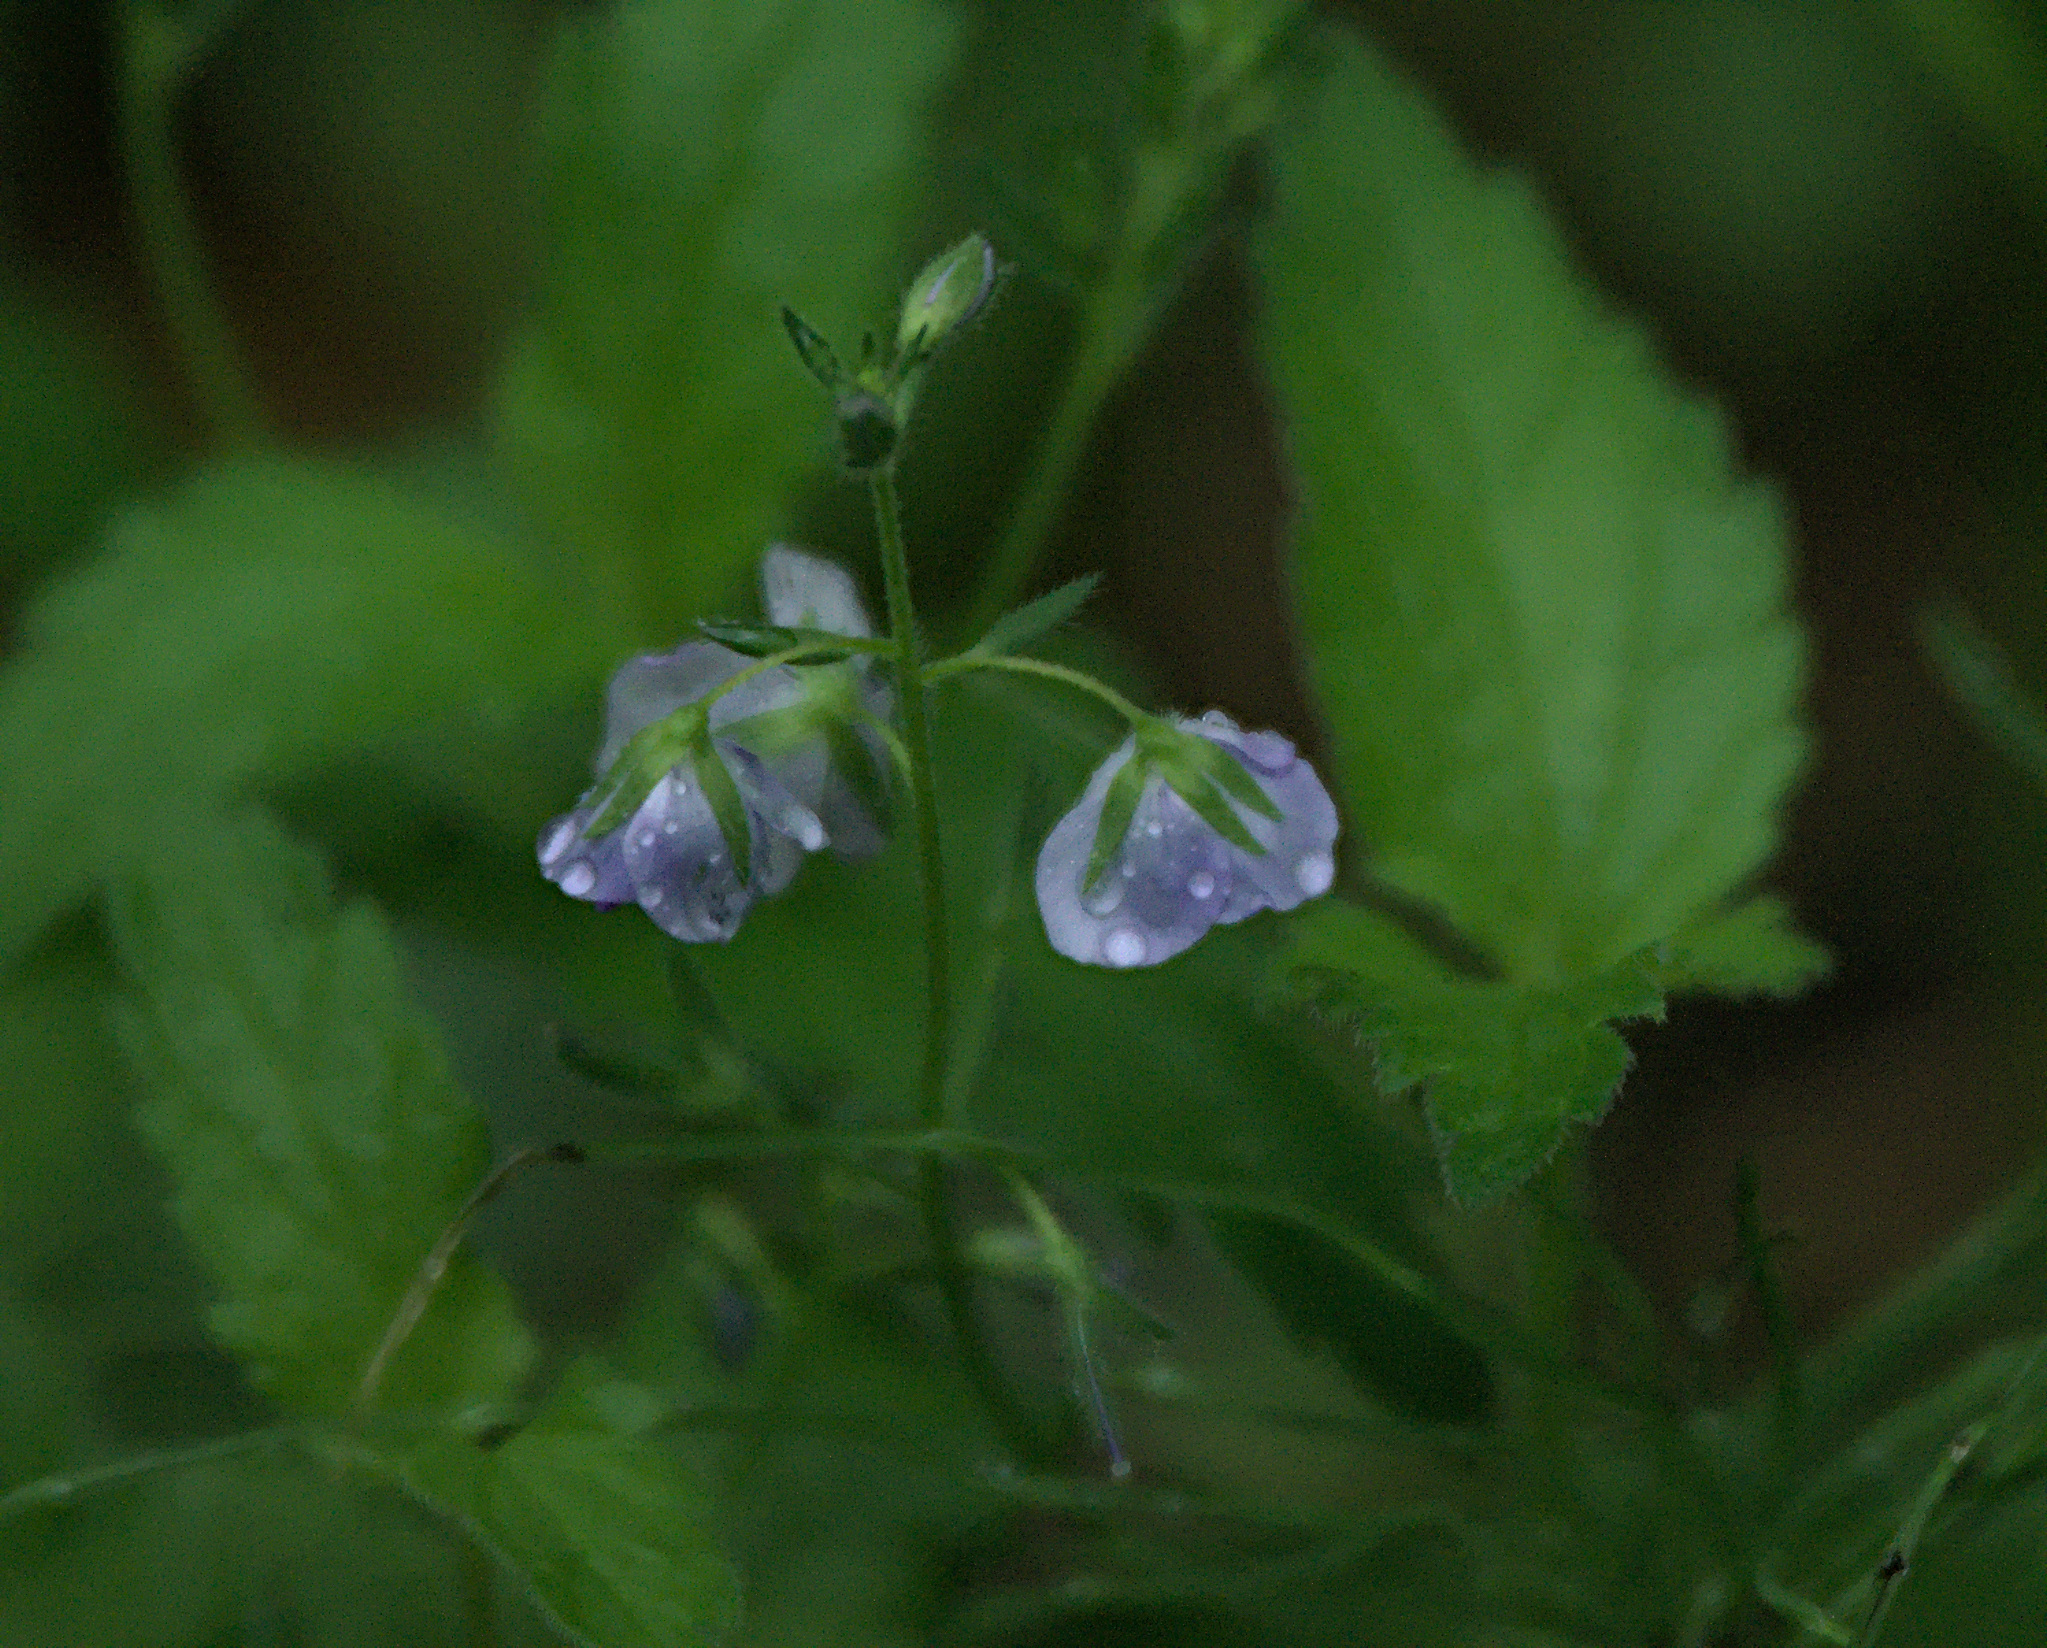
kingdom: Plantae
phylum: Tracheophyta
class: Magnoliopsida
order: Lamiales
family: Plantaginaceae
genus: Veronica
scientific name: Veronica chamaedrys
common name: Germander speedwell
